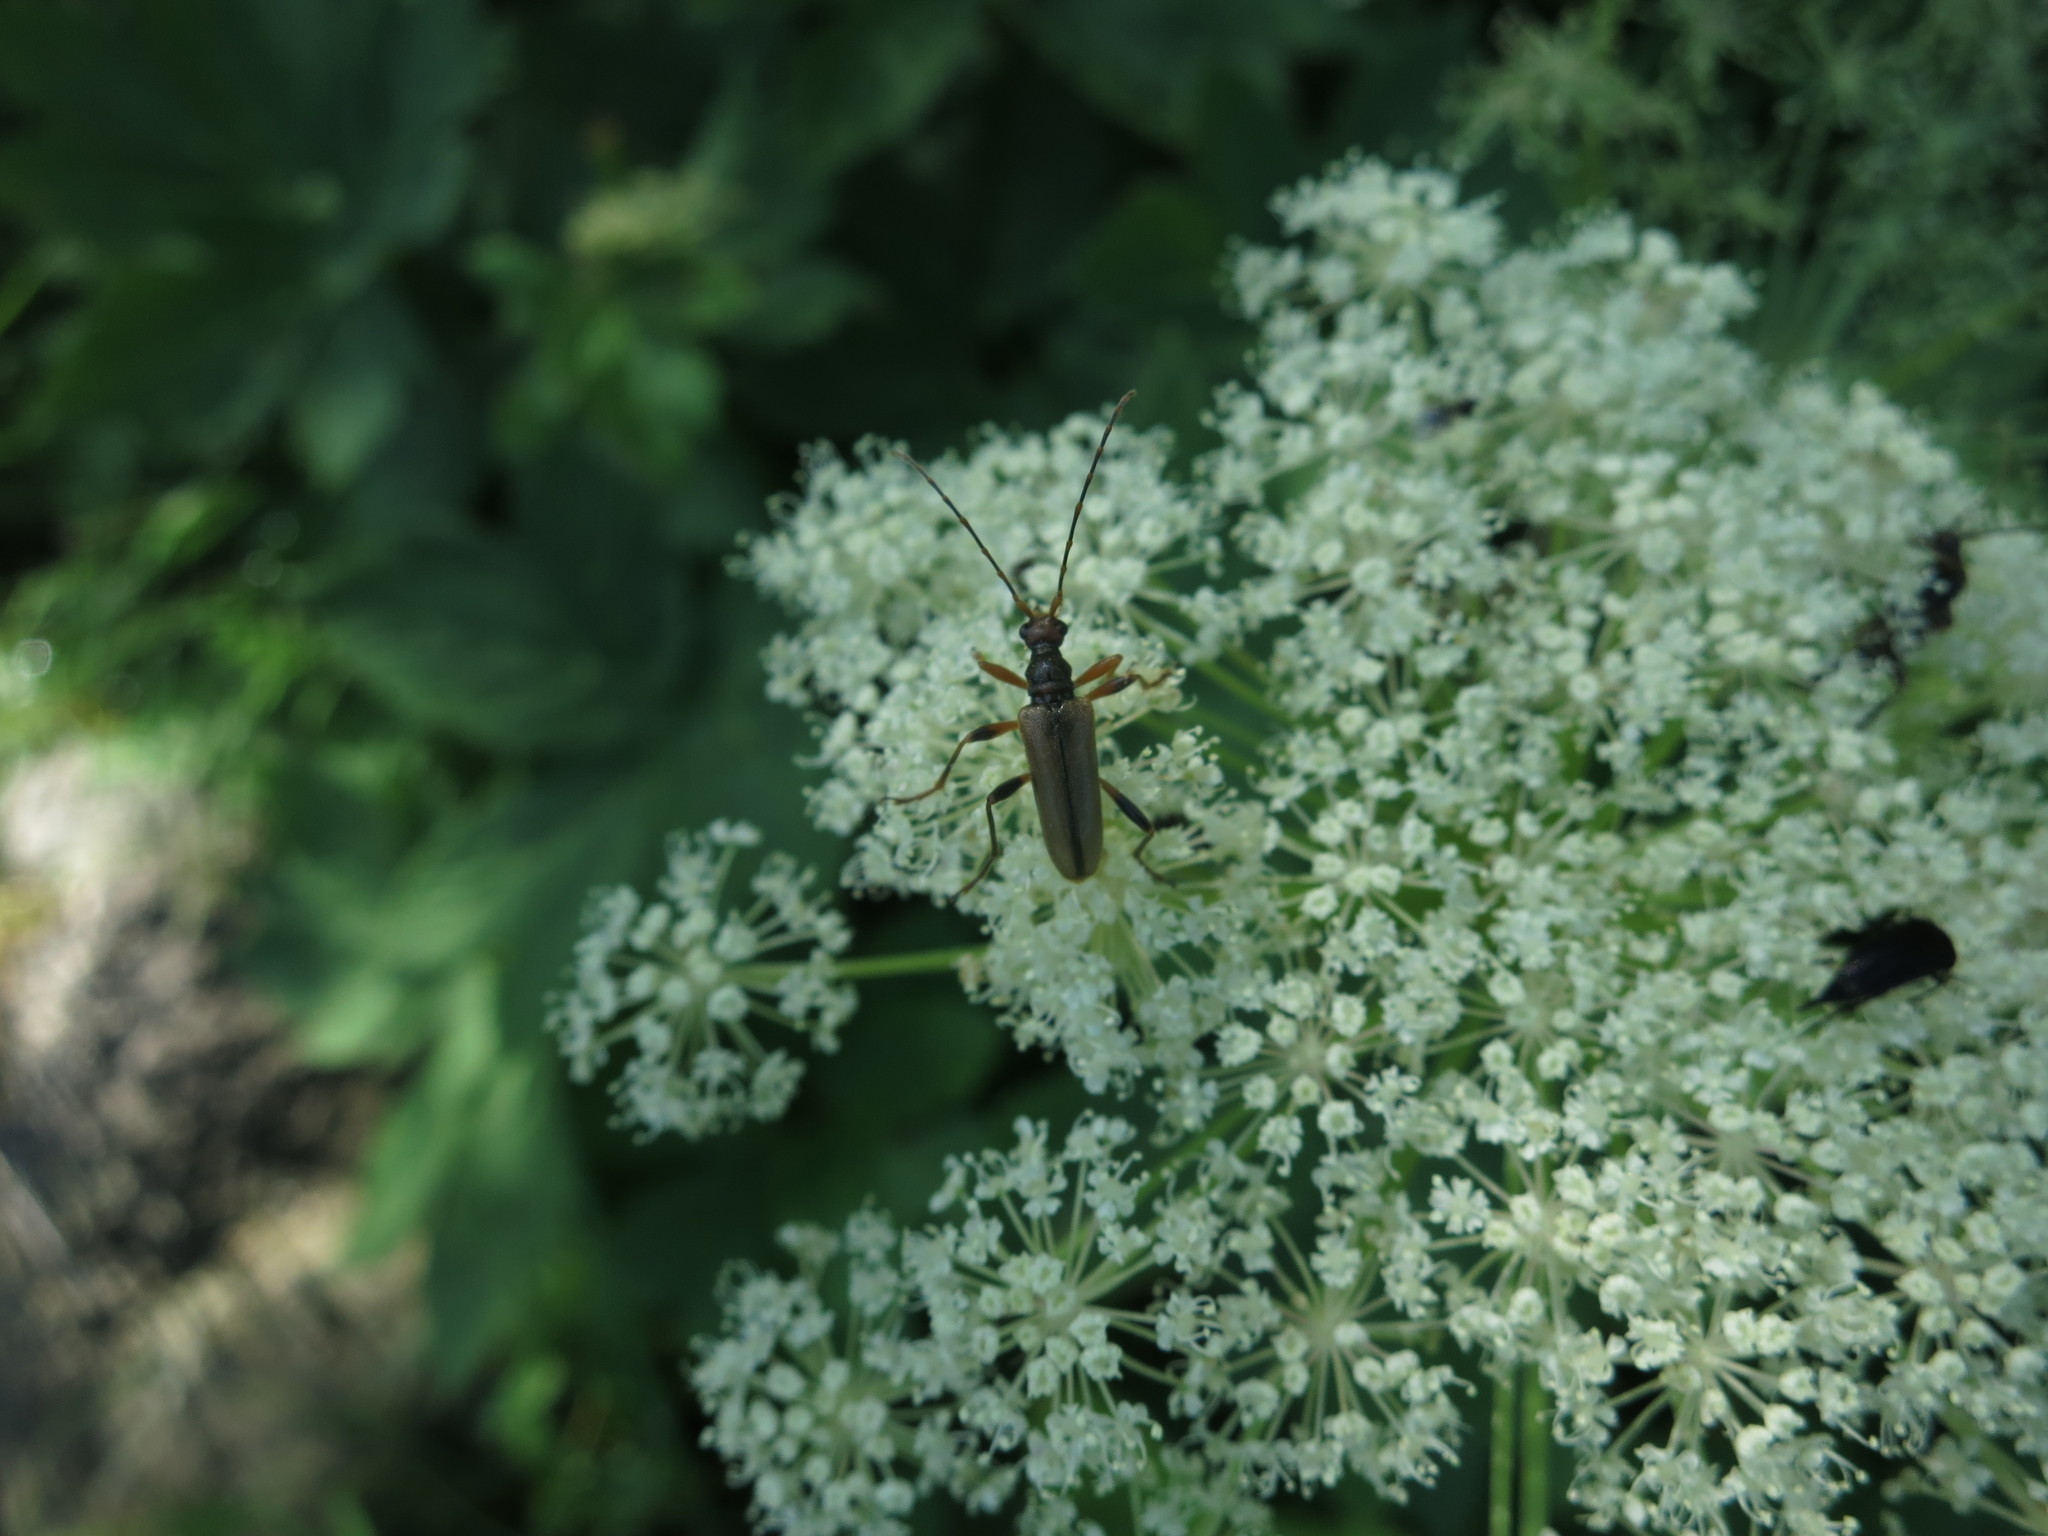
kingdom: Animalia
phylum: Arthropoda
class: Insecta
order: Coleoptera
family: Cerambycidae
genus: Pidonia
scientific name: Pidonia lurida
